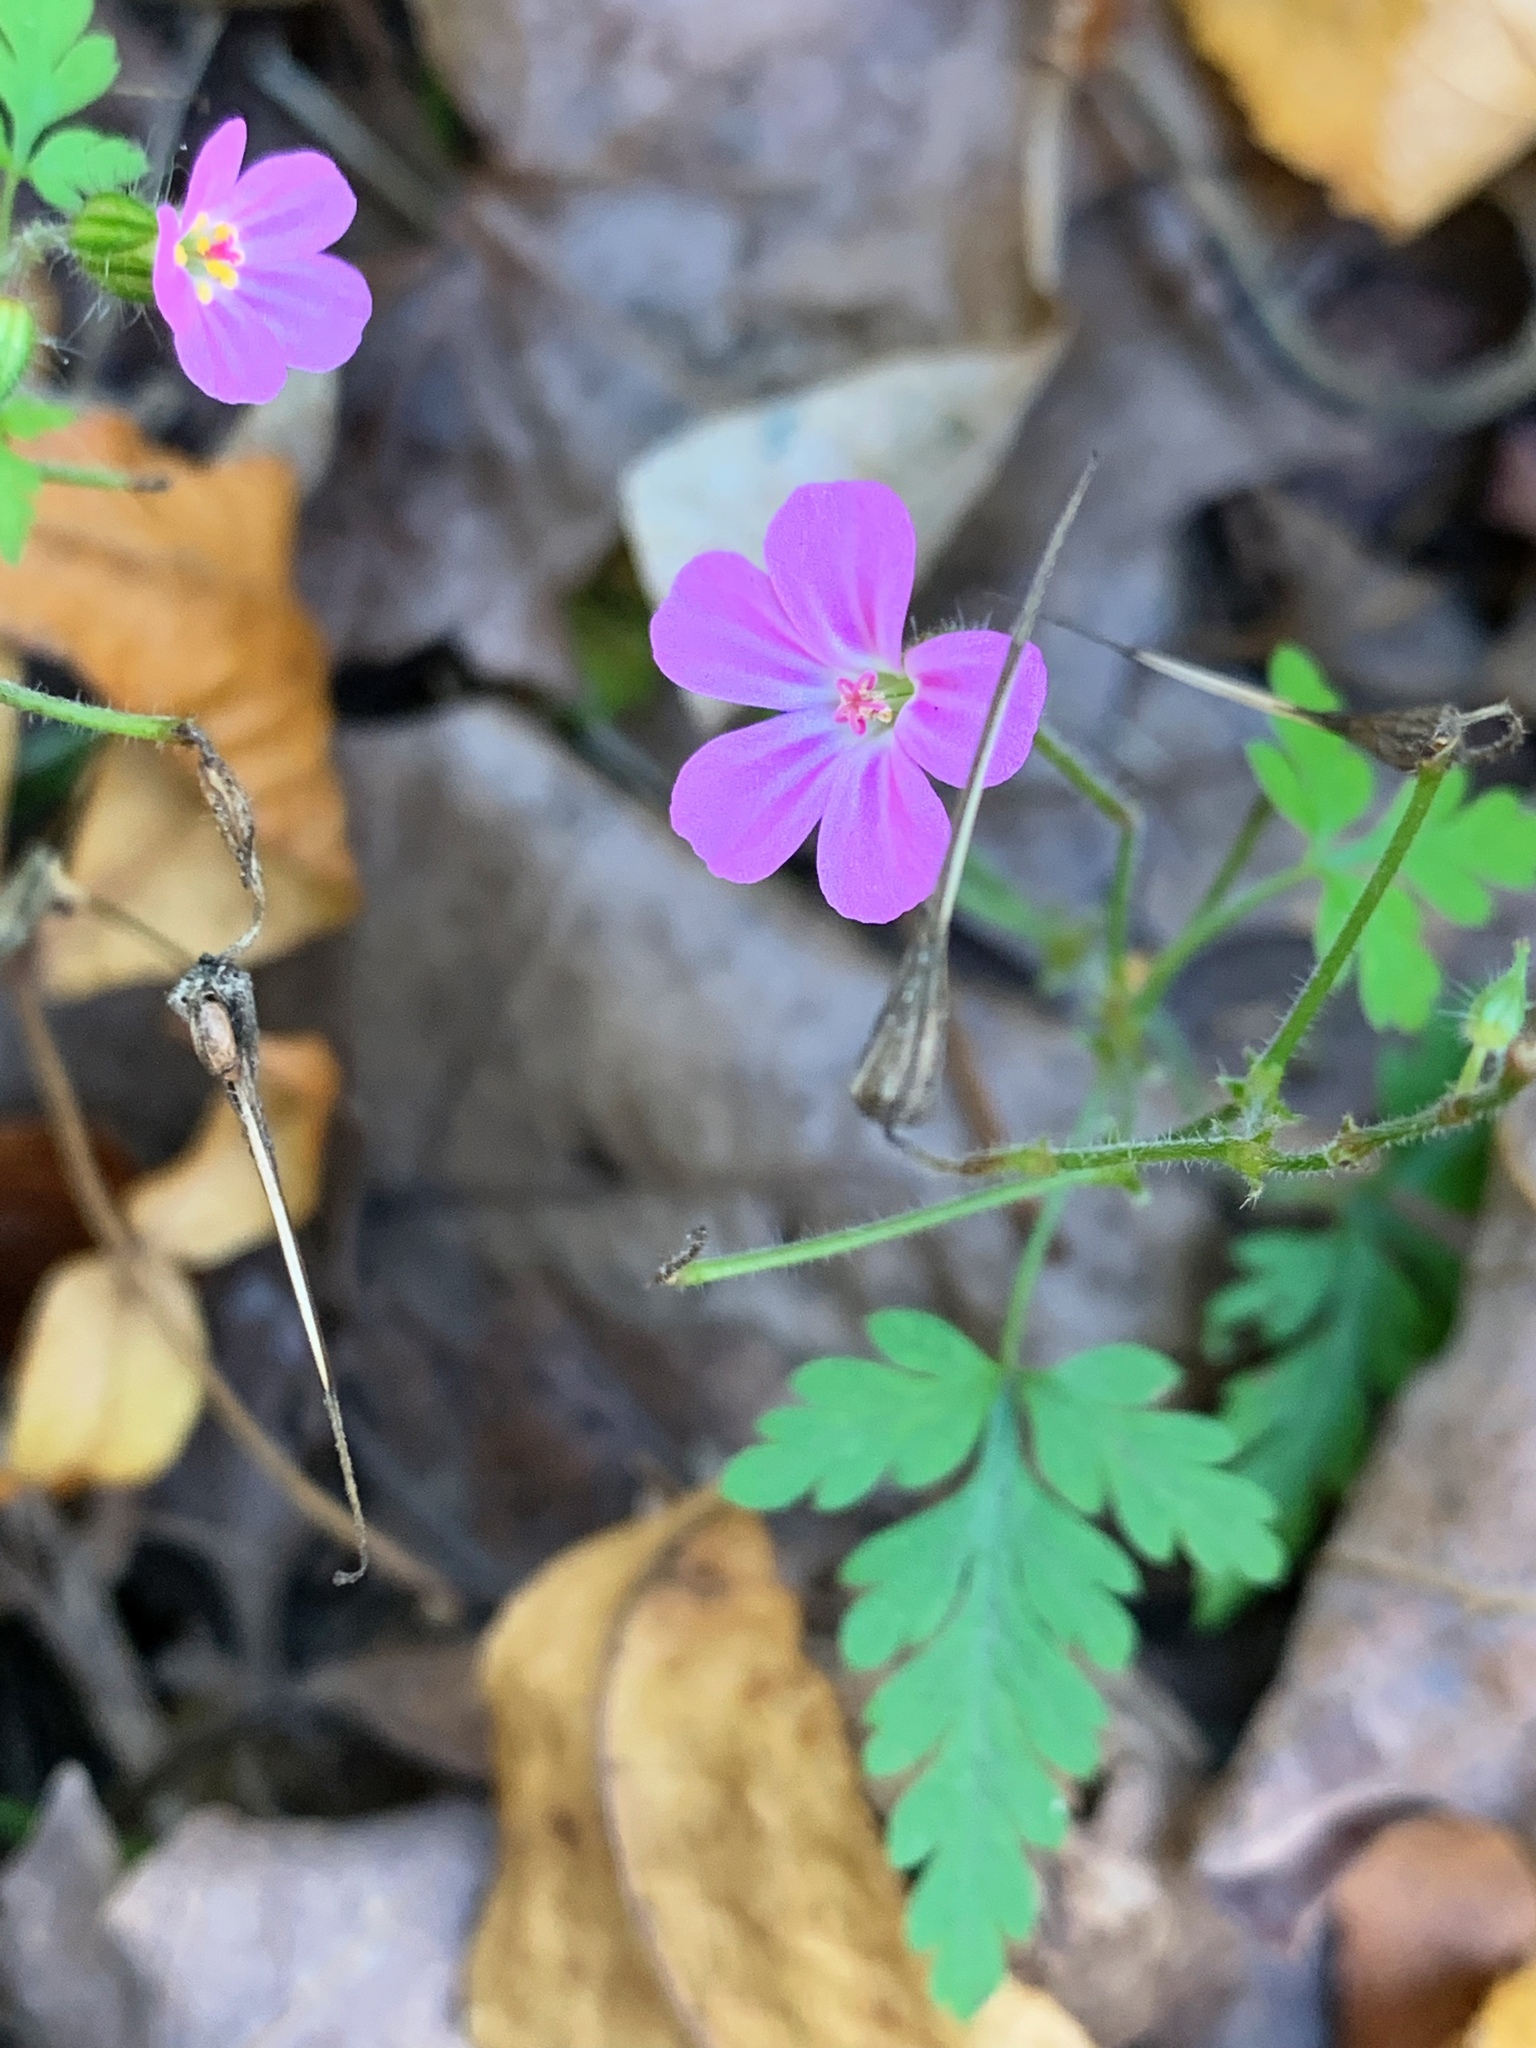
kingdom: Plantae
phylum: Tracheophyta
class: Magnoliopsida
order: Geraniales
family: Geraniaceae
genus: Geranium
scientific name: Geranium robertianum
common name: Herb-robert
